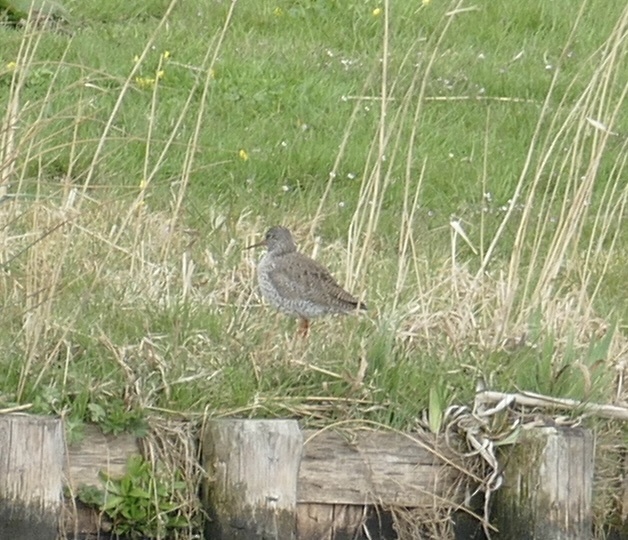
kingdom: Animalia
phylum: Chordata
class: Aves
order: Charadriiformes
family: Scolopacidae
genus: Tringa
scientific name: Tringa totanus
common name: Common redshank
